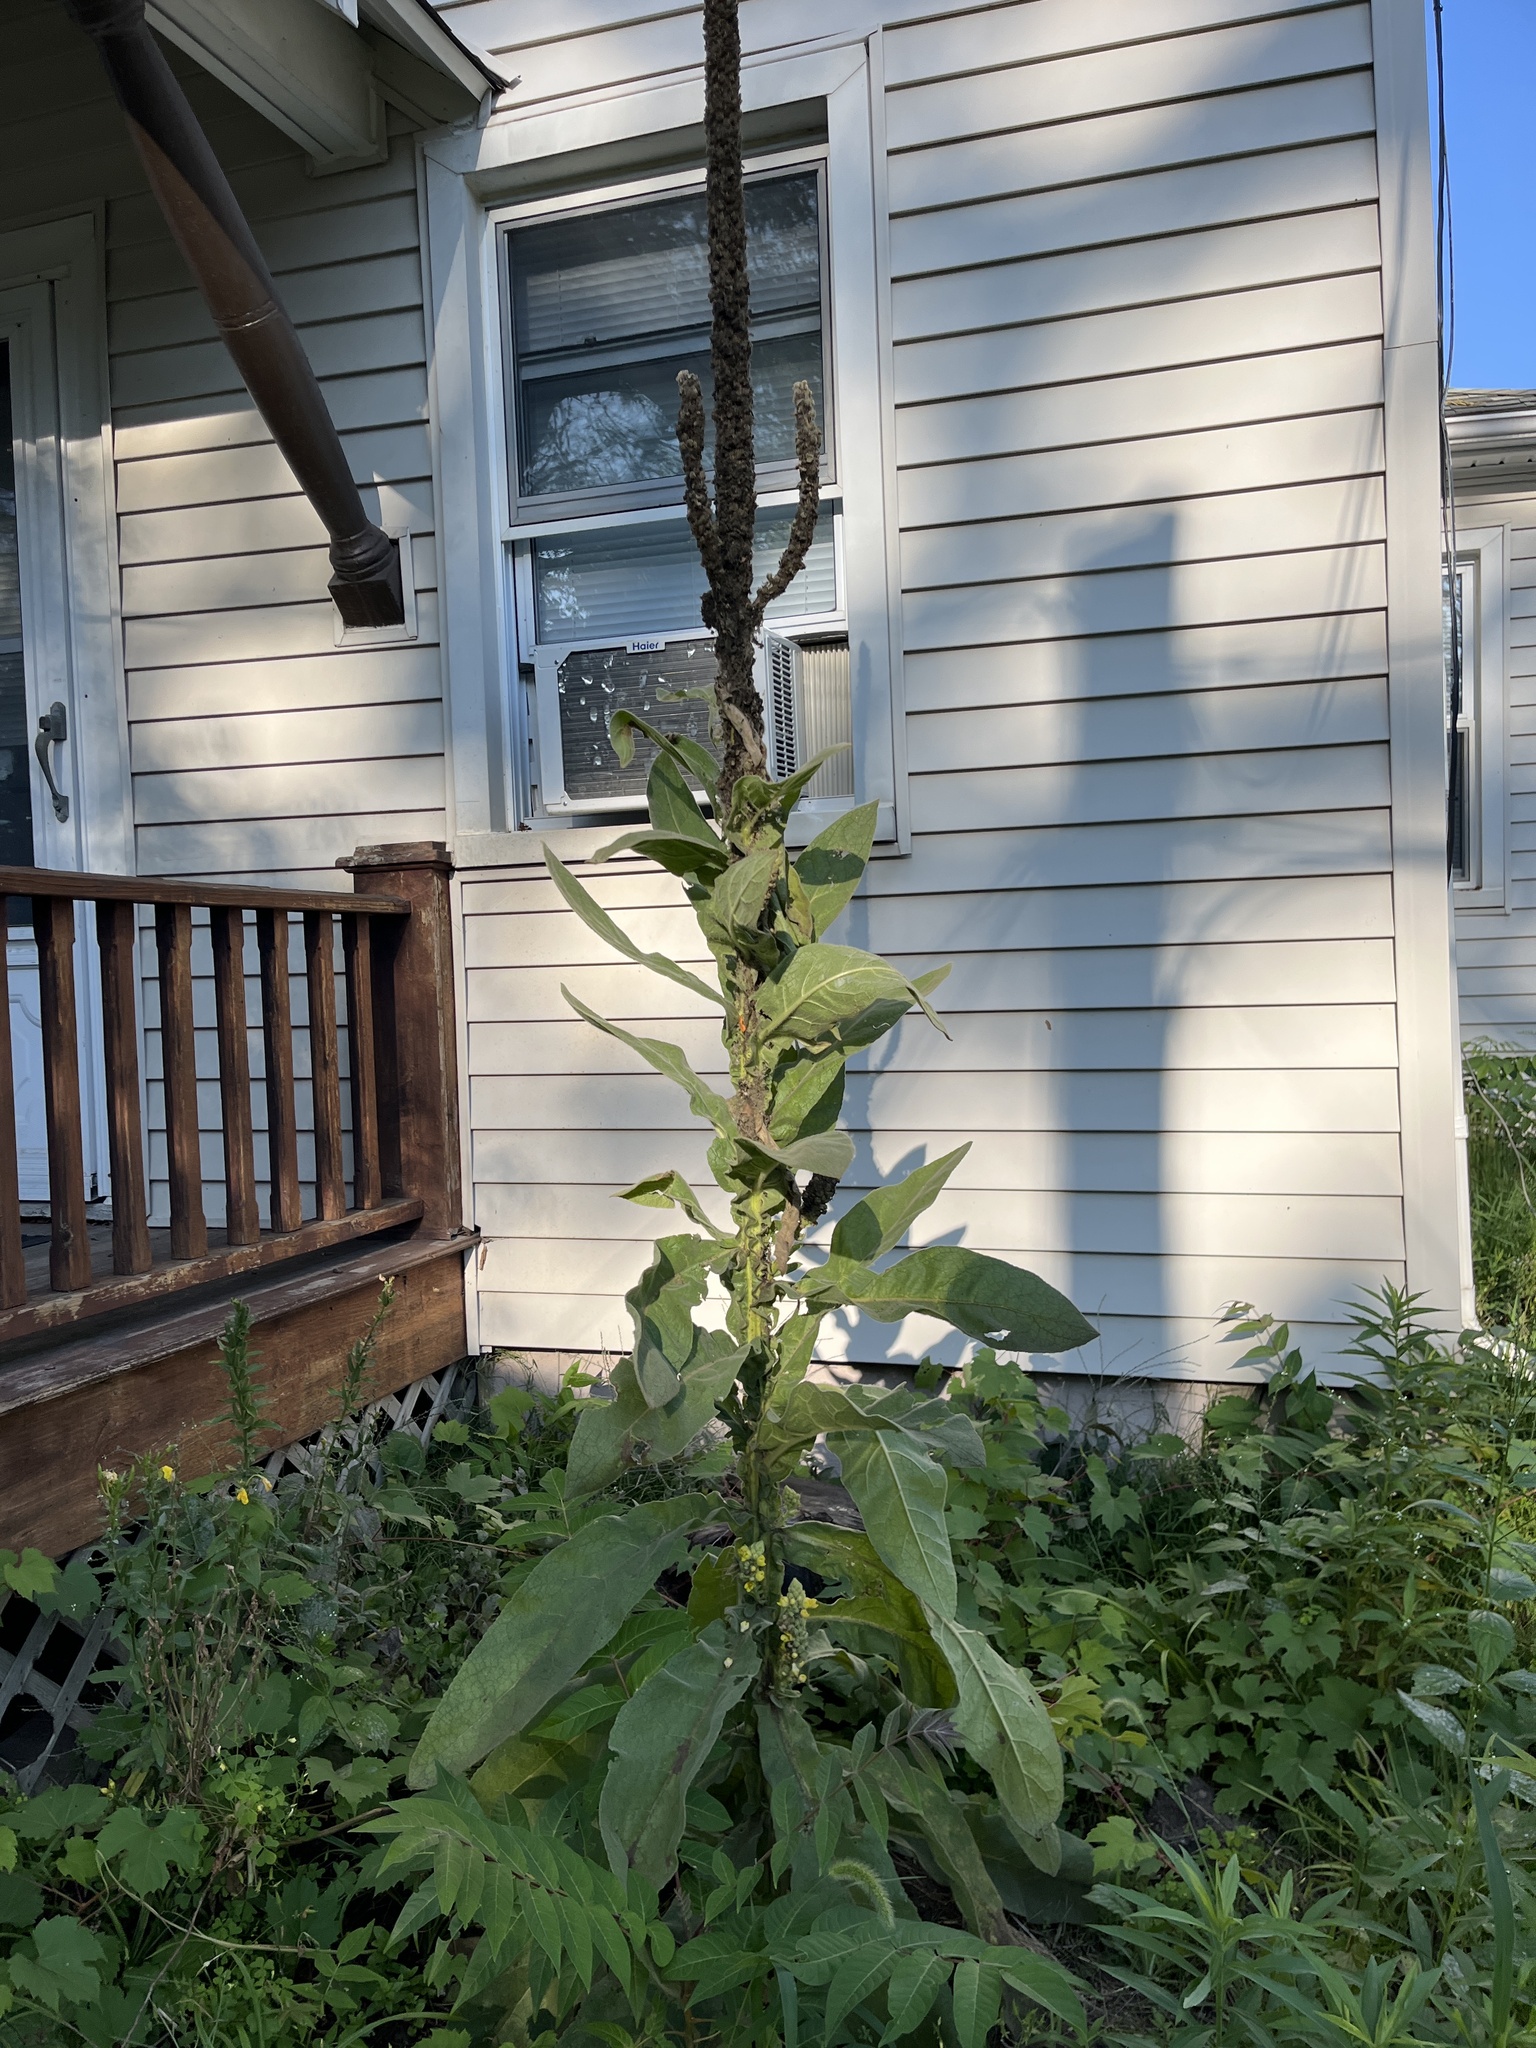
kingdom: Plantae
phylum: Tracheophyta
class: Magnoliopsida
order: Lamiales
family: Scrophulariaceae
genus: Verbascum
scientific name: Verbascum thapsus
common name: Common mullein
